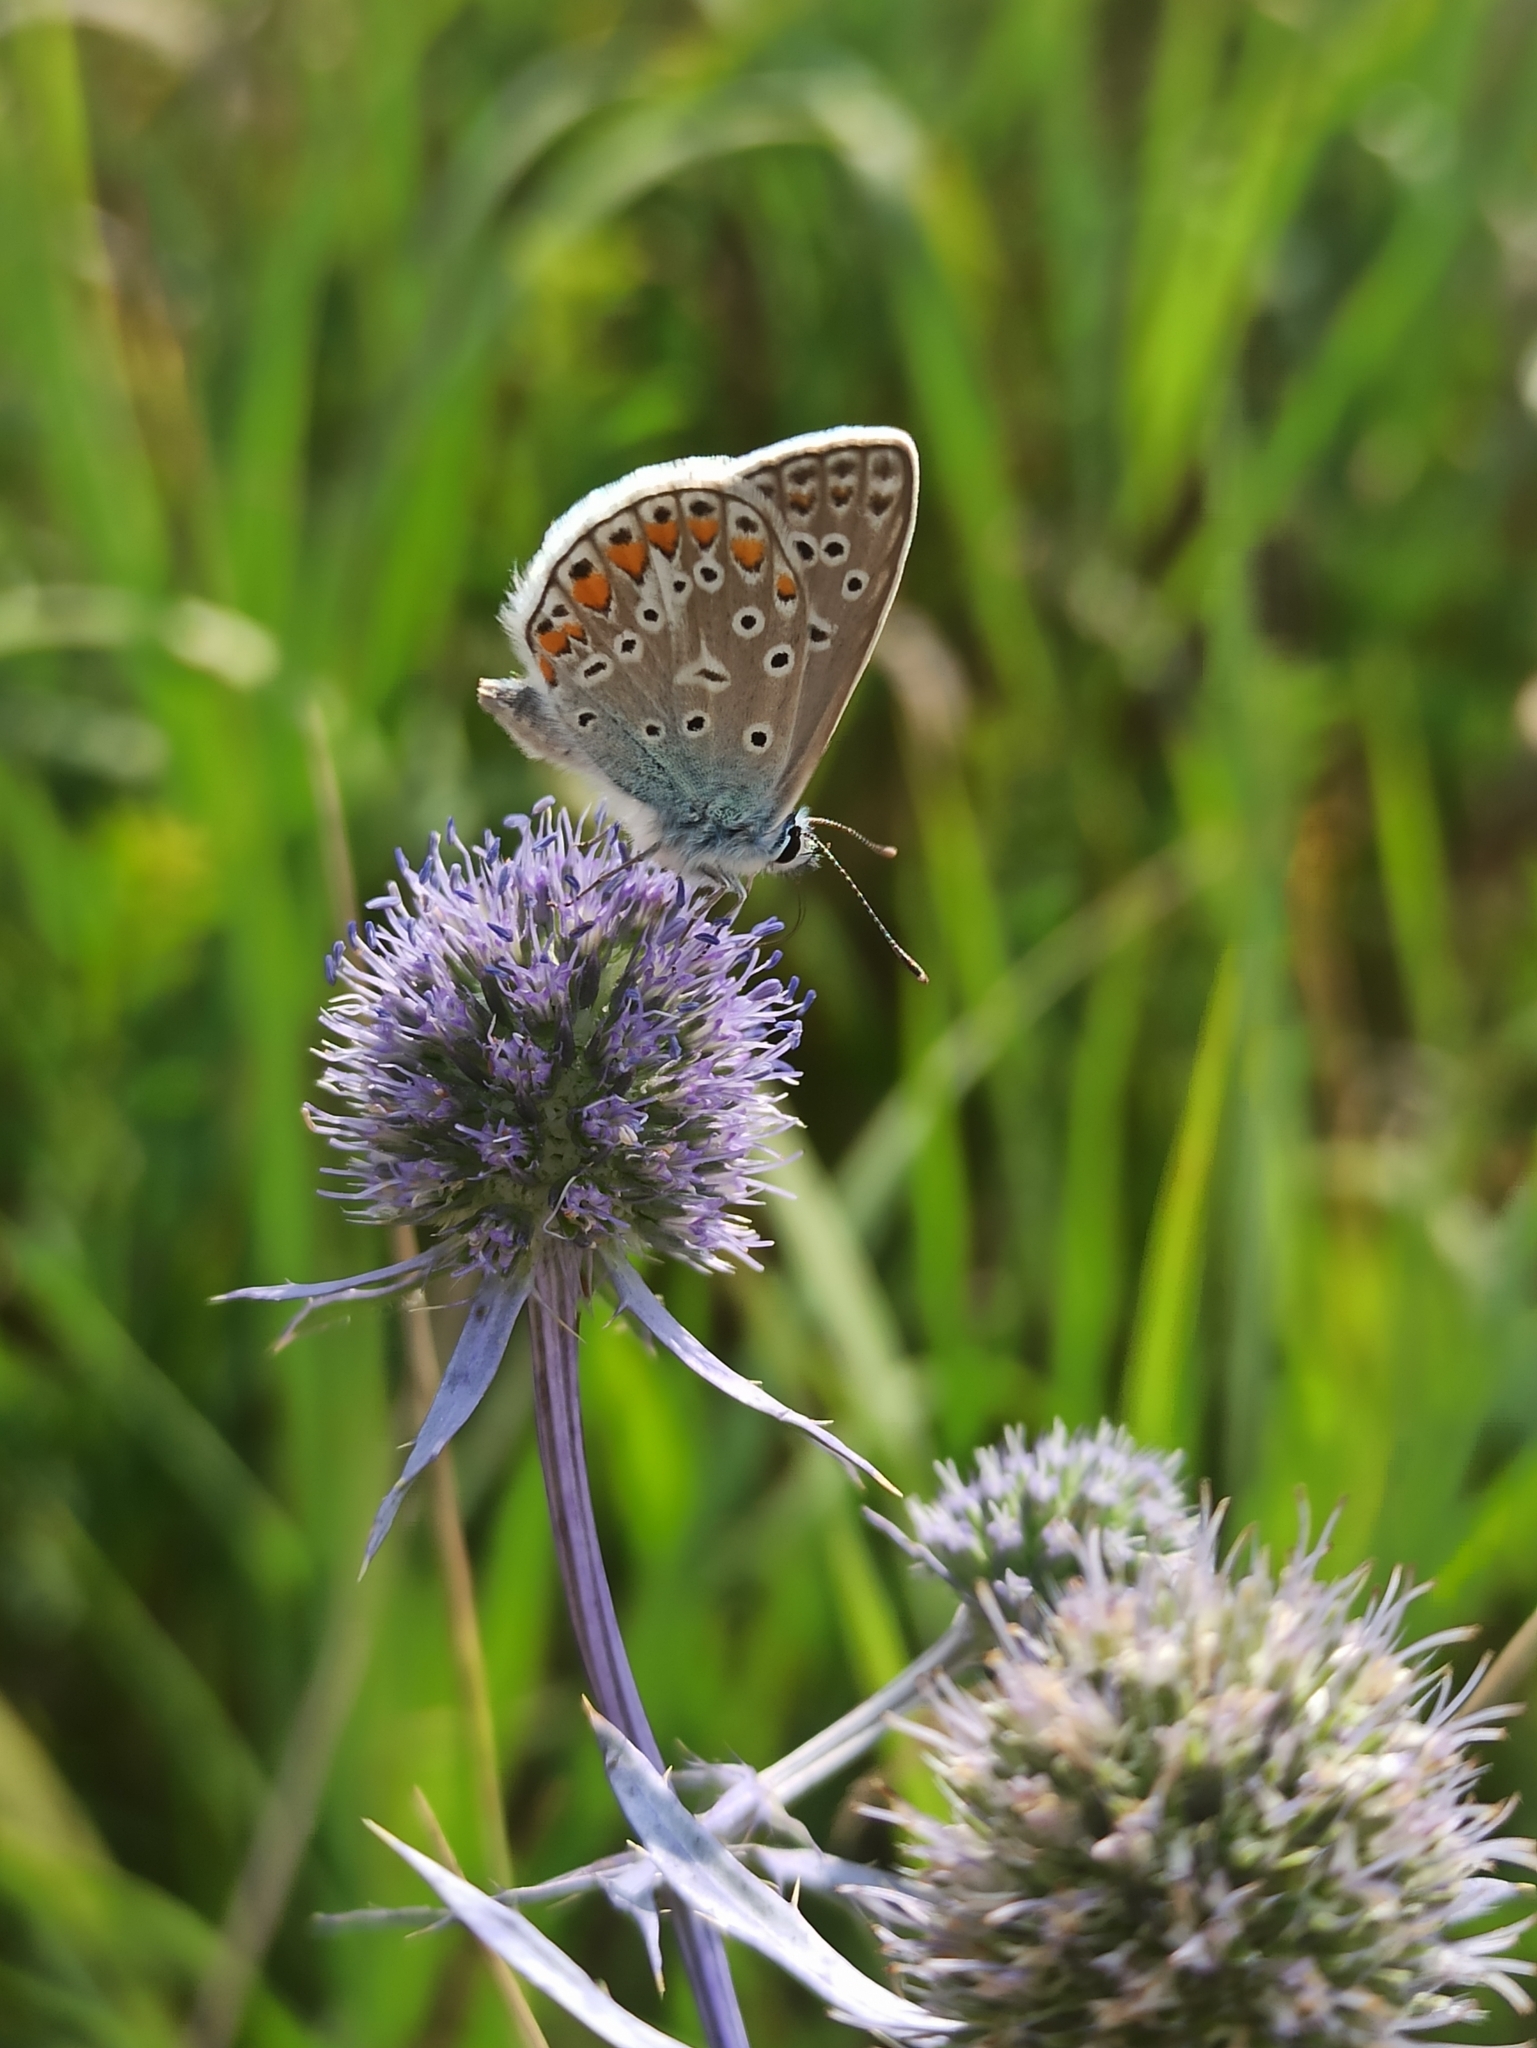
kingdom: Animalia
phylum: Arthropoda
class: Insecta
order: Lepidoptera
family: Lycaenidae
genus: Polyommatus
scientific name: Polyommatus icarus
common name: Common blue
